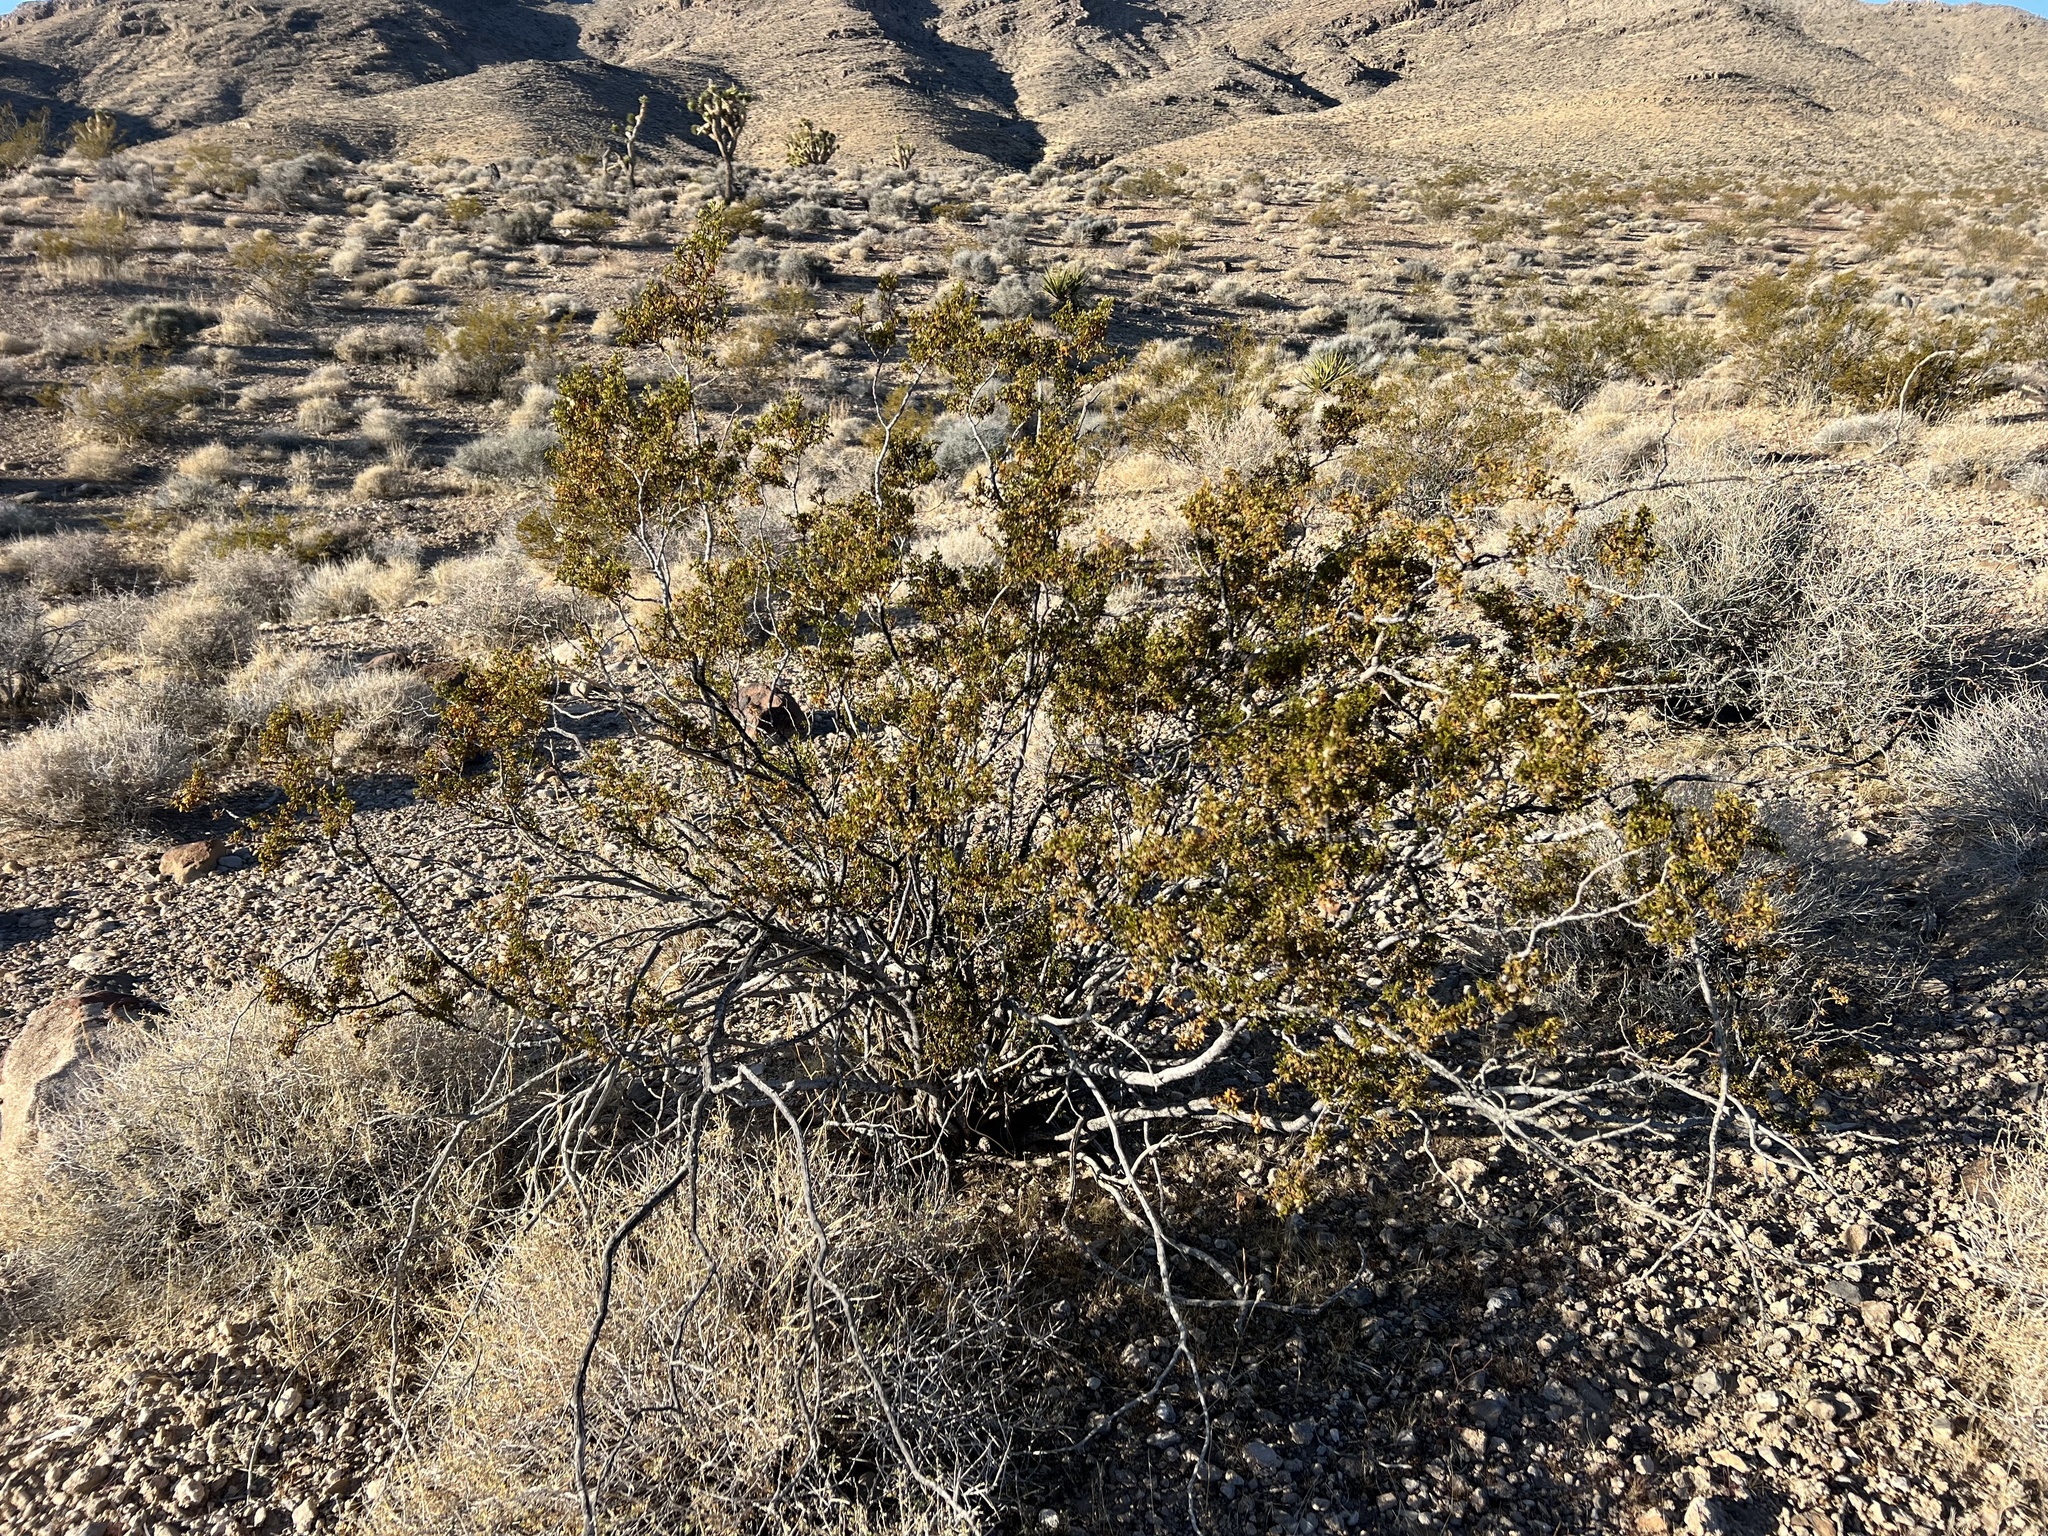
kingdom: Plantae
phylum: Tracheophyta
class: Magnoliopsida
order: Zygophyllales
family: Zygophyllaceae
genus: Larrea
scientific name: Larrea tridentata
